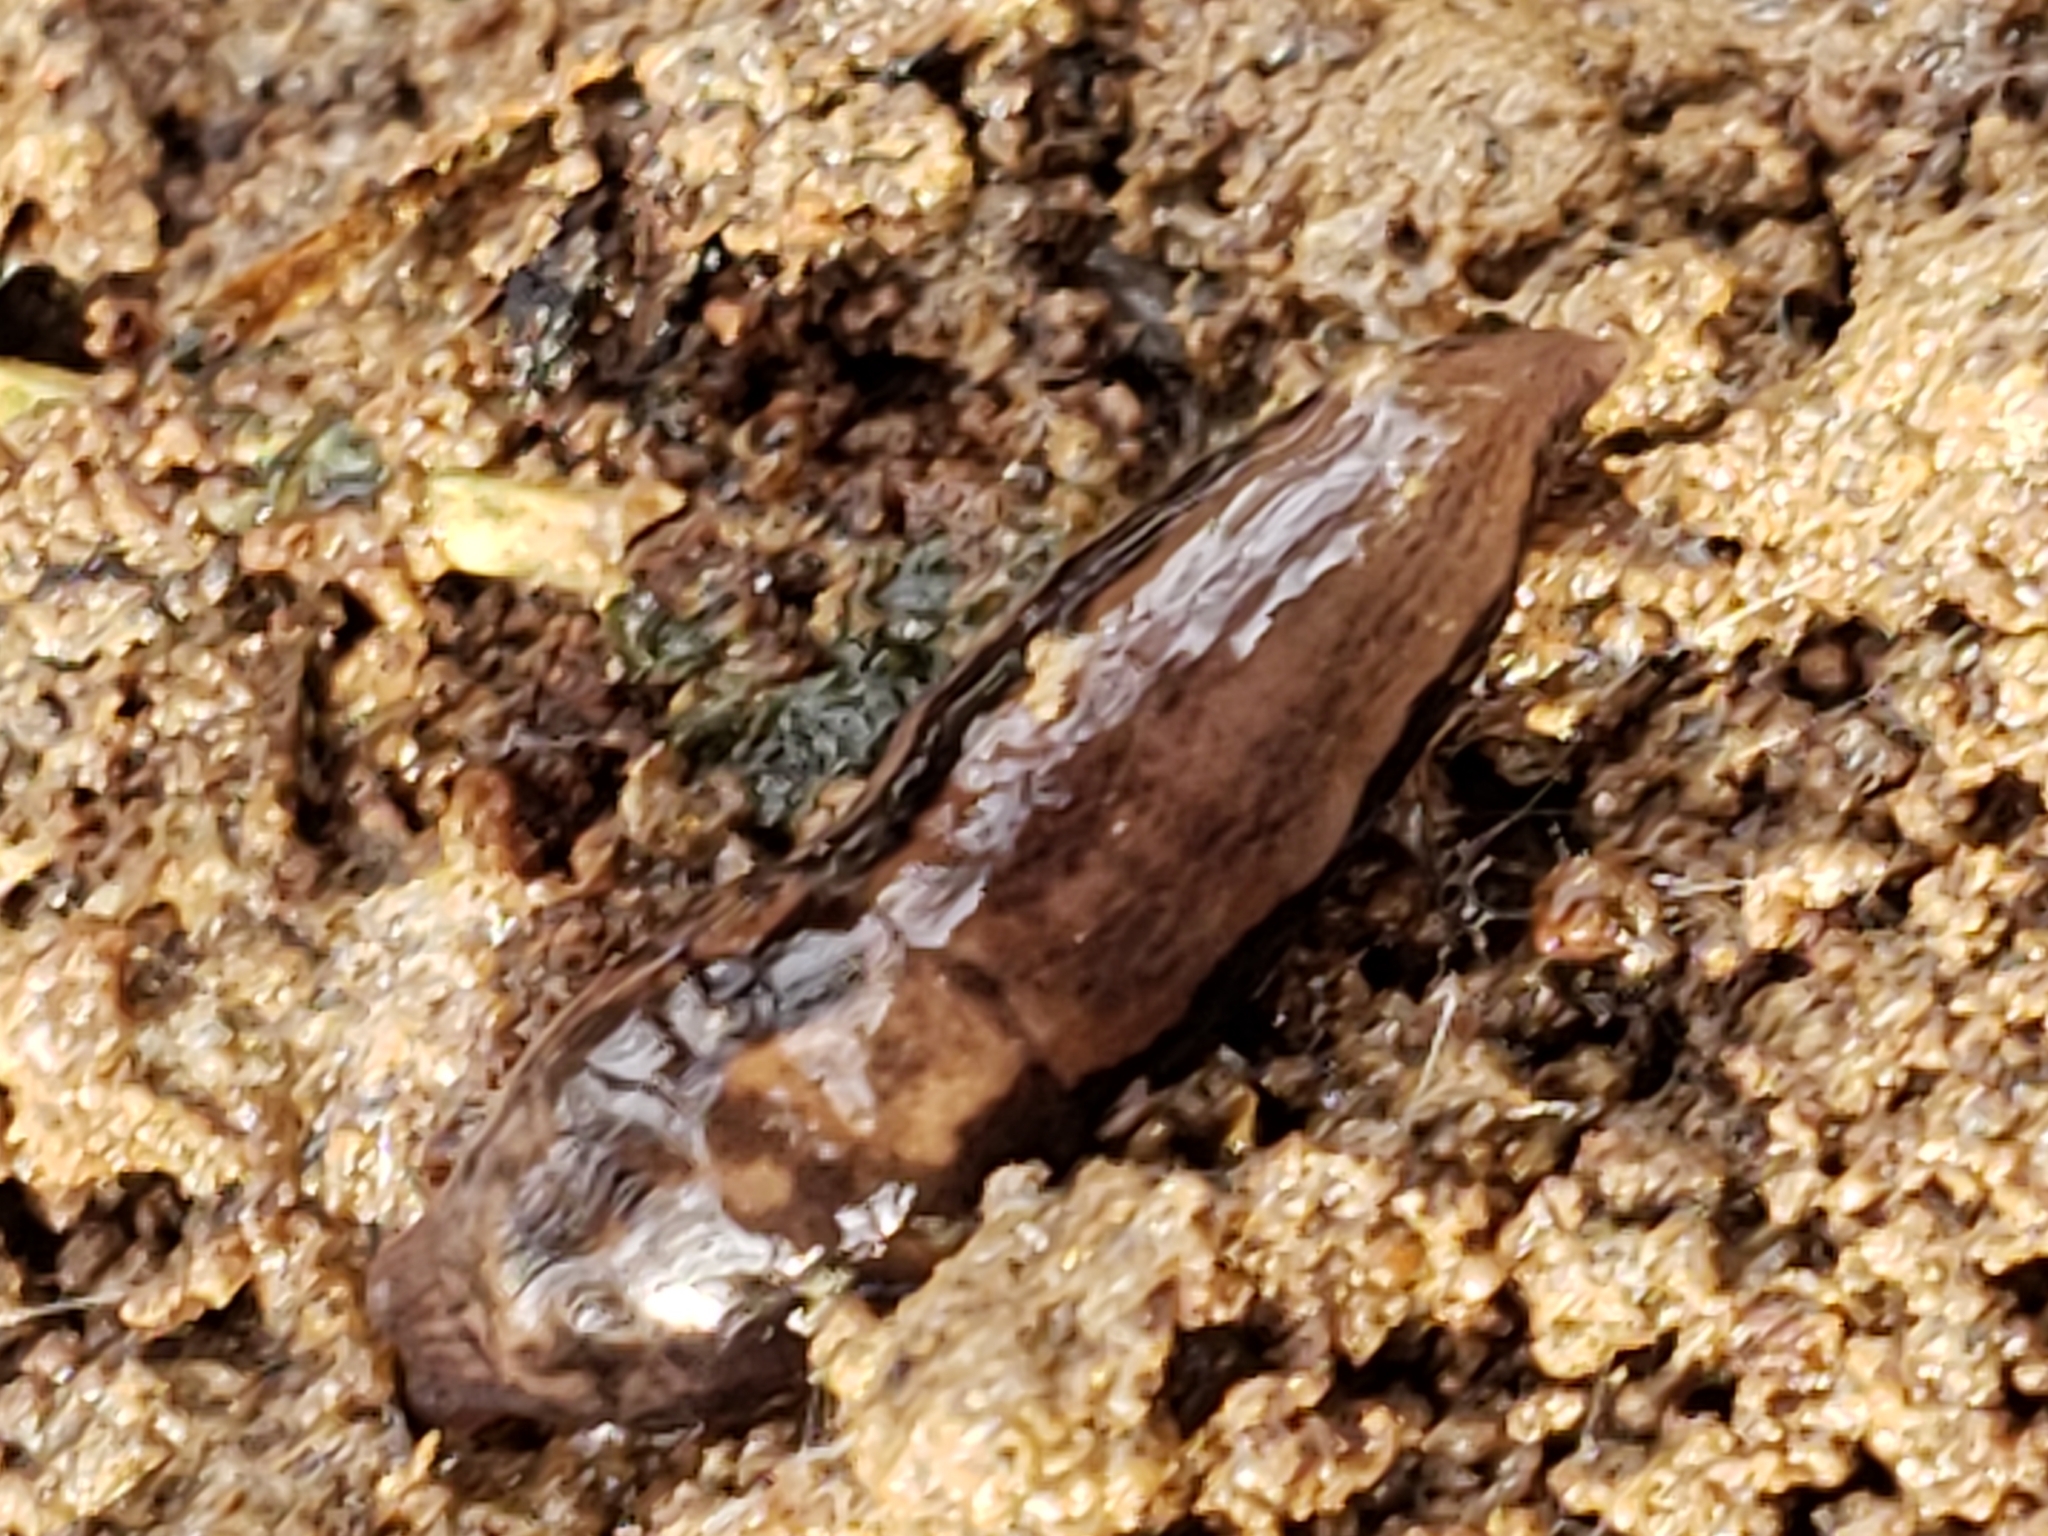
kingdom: Animalia
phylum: Mollusca
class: Gastropoda
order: Stylommatophora
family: Limacidae
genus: Limax
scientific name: Limax maximus
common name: Great grey slug
